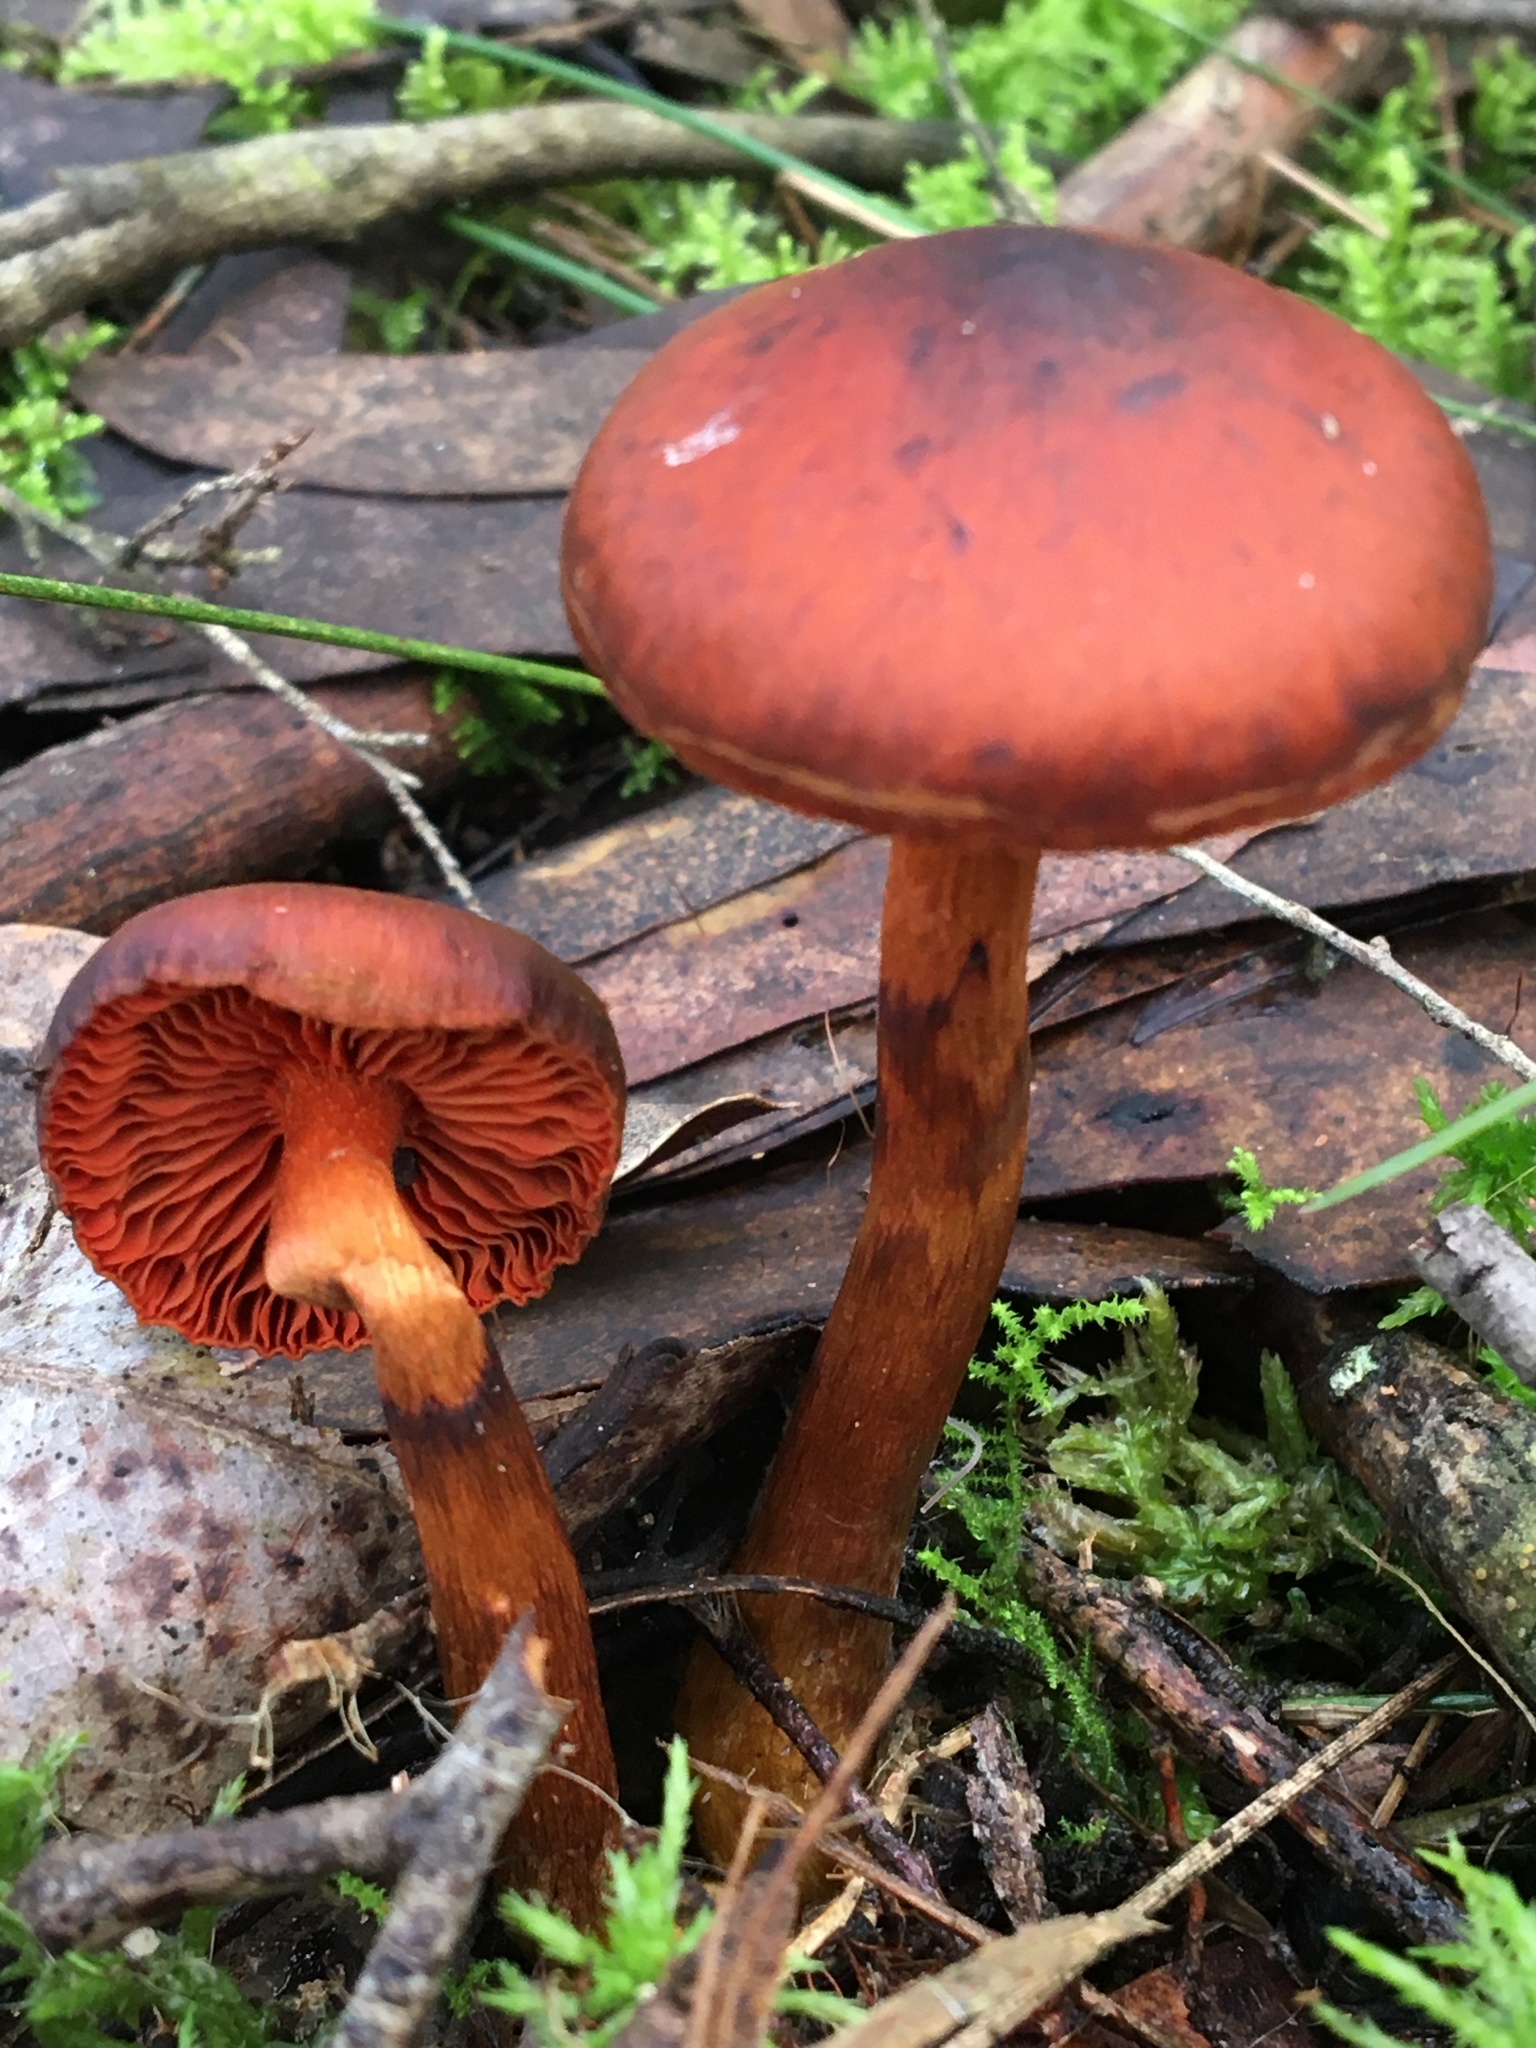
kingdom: Fungi
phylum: Basidiomycota
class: Agaricomycetes
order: Agaricales
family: Cortinariaceae
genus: Cortinarius
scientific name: Cortinarius persplendidus
